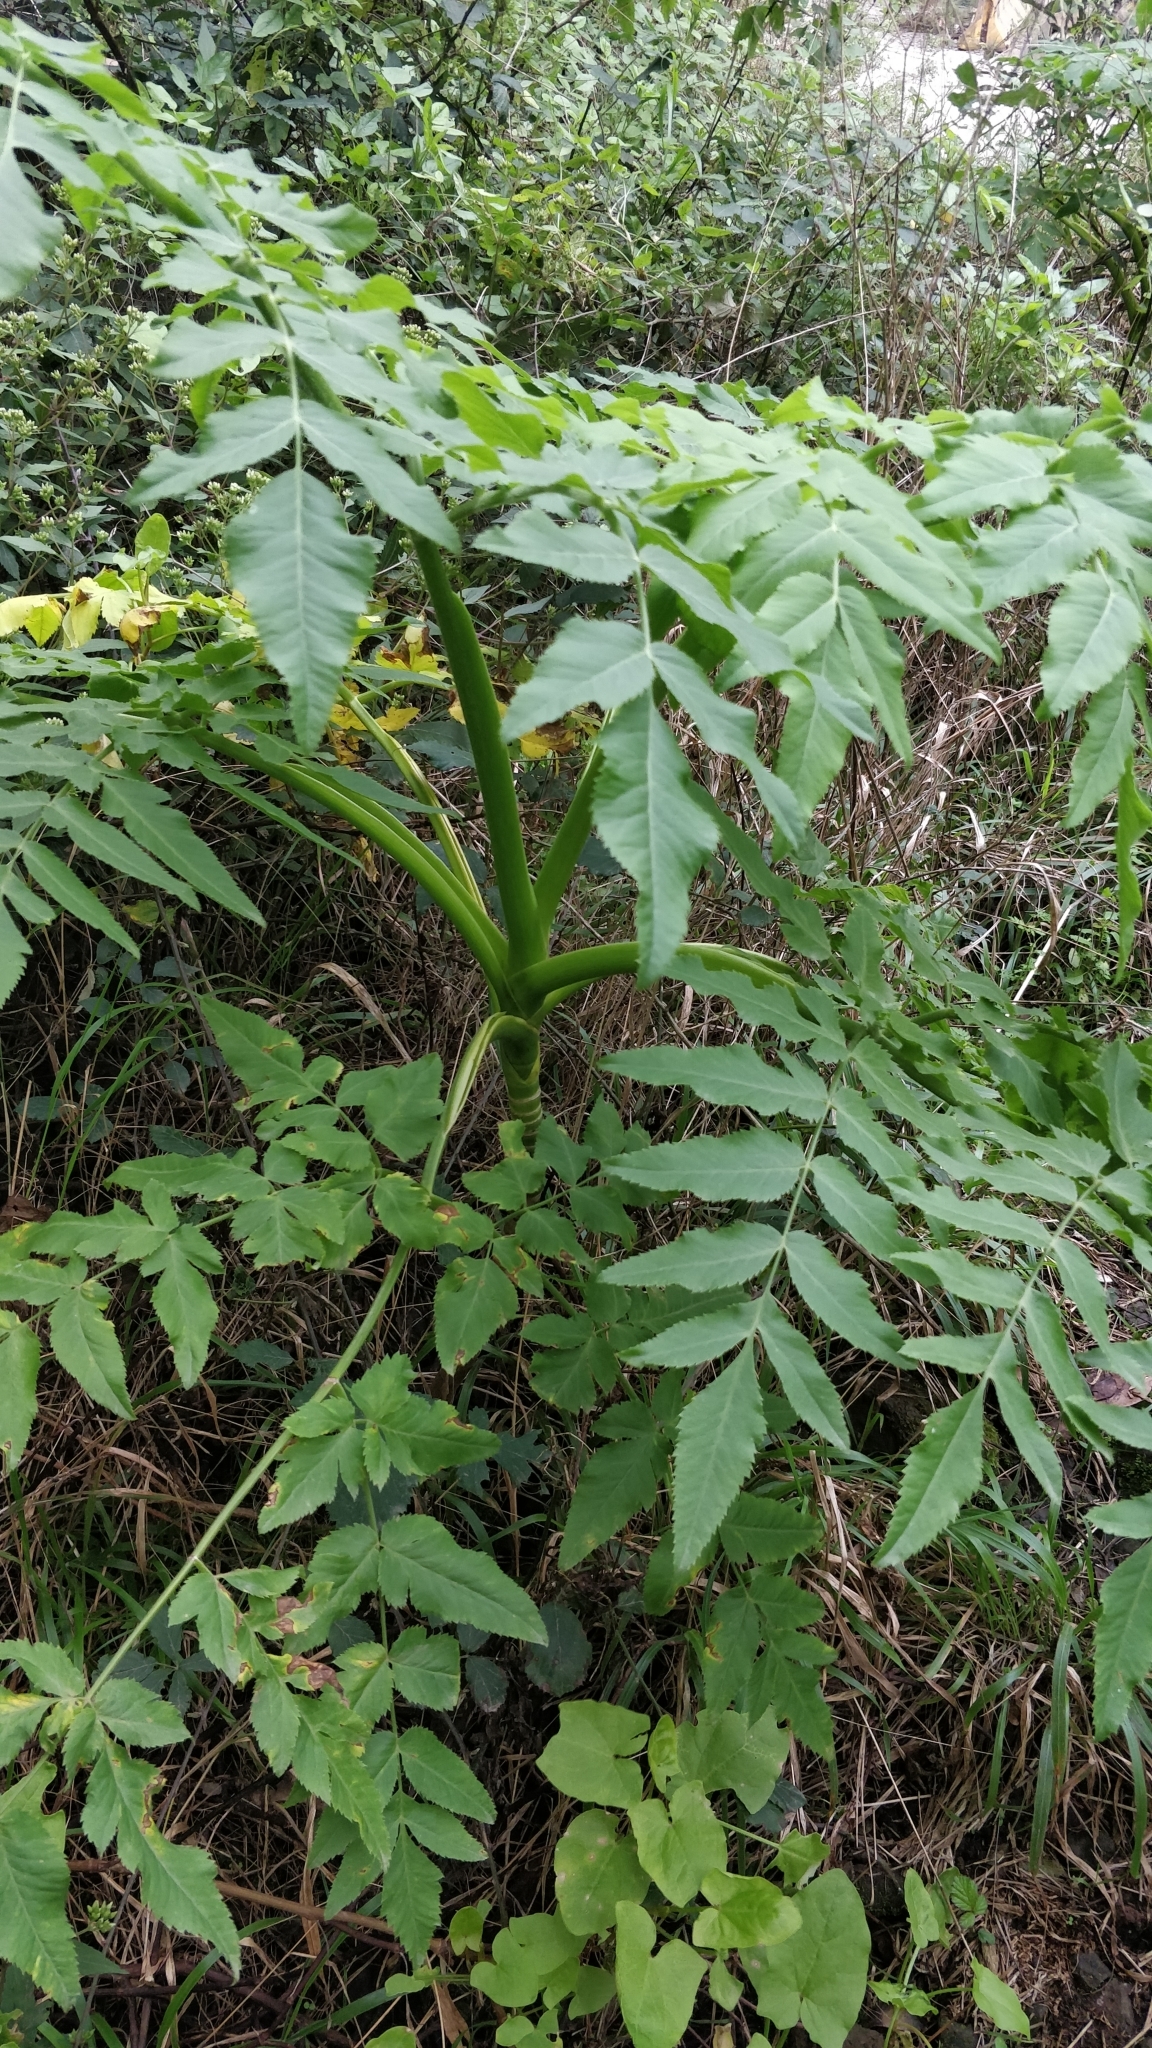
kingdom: Plantae
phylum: Tracheophyta
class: Magnoliopsida
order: Apiales
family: Apiaceae
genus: Daucus
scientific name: Daucus decipiens
